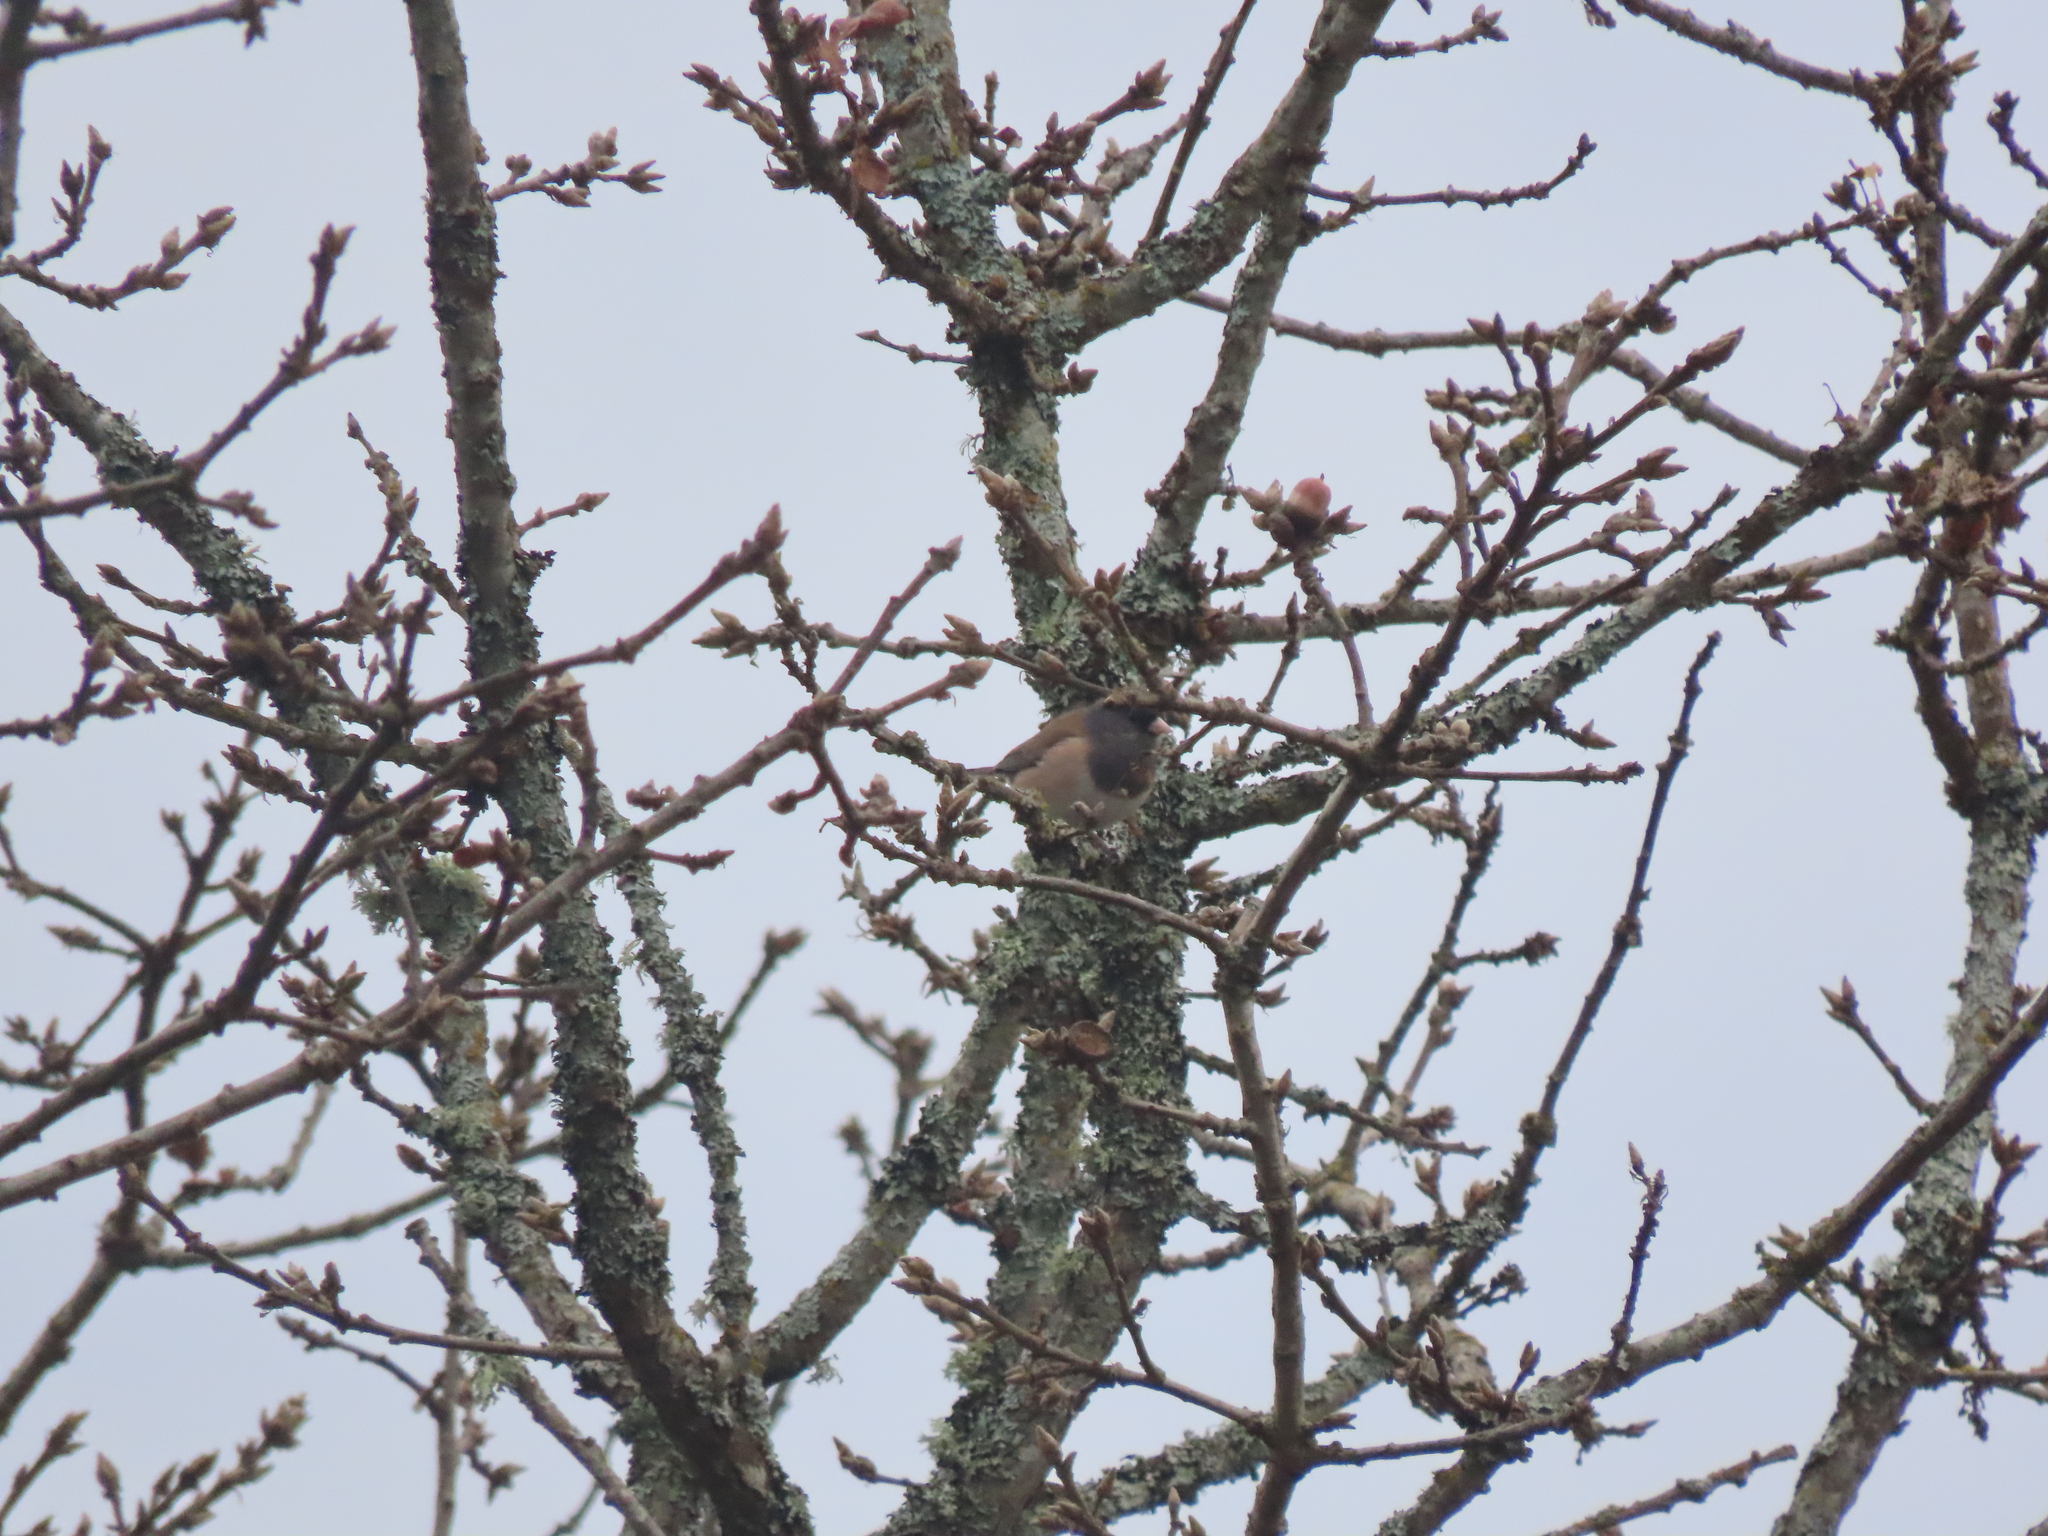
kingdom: Animalia
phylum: Chordata
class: Aves
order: Passeriformes
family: Passerellidae
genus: Junco
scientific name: Junco hyemalis
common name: Dark-eyed junco
